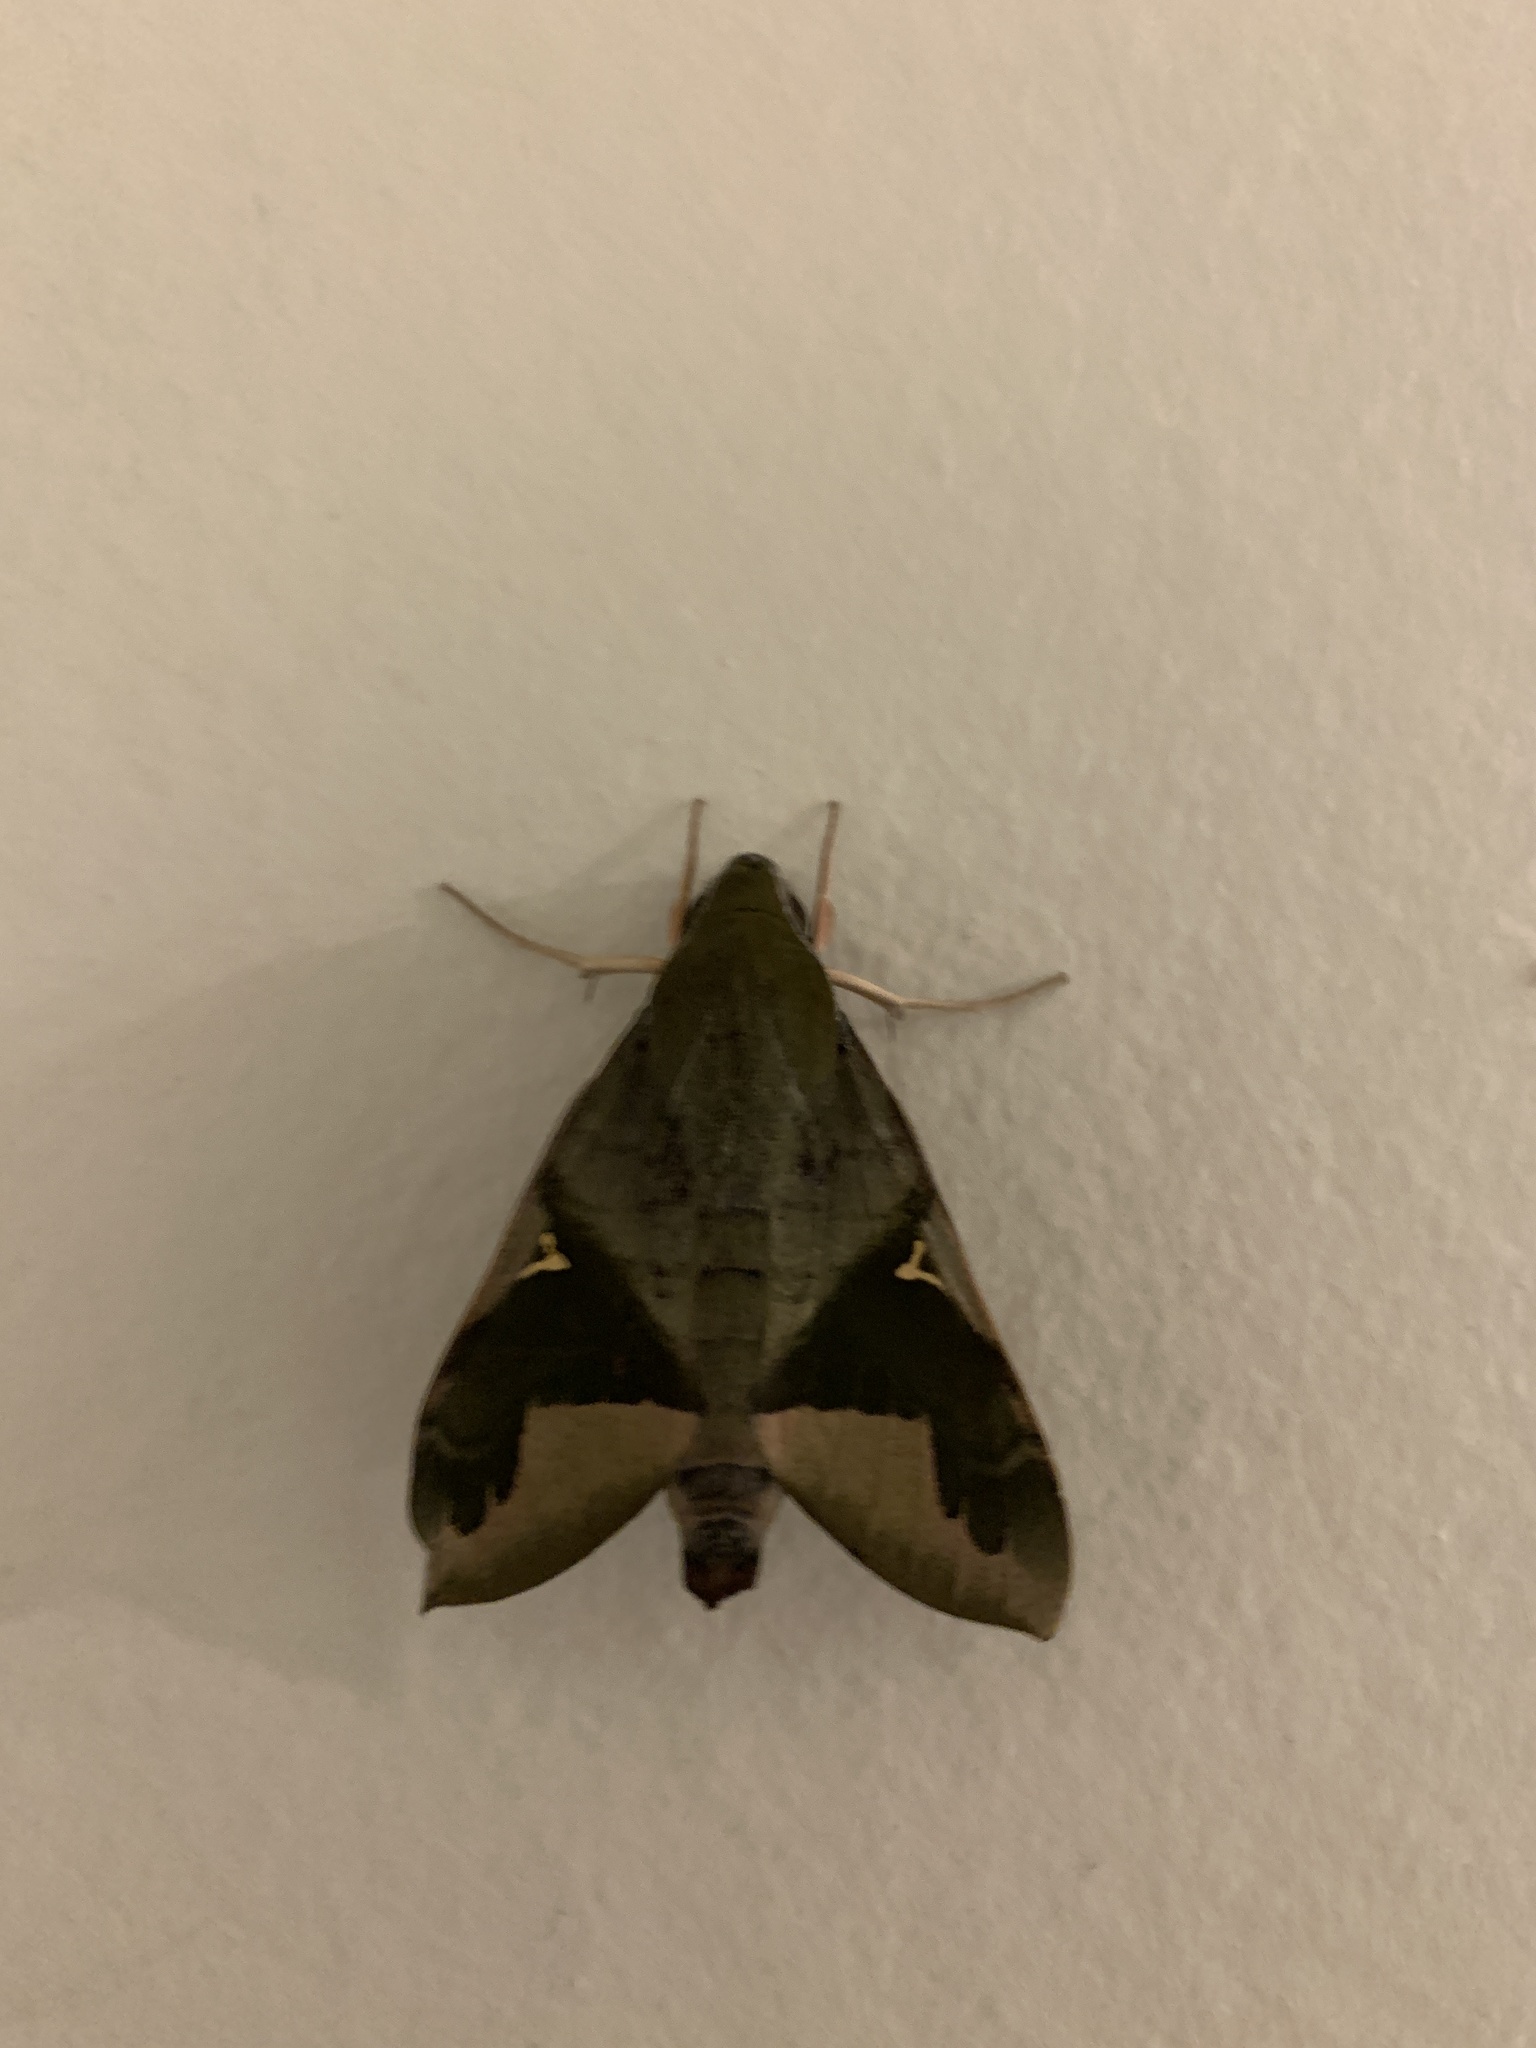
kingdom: Animalia
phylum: Arthropoda
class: Insecta
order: Lepidoptera
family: Sphingidae
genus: Nephele
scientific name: Nephele vau
